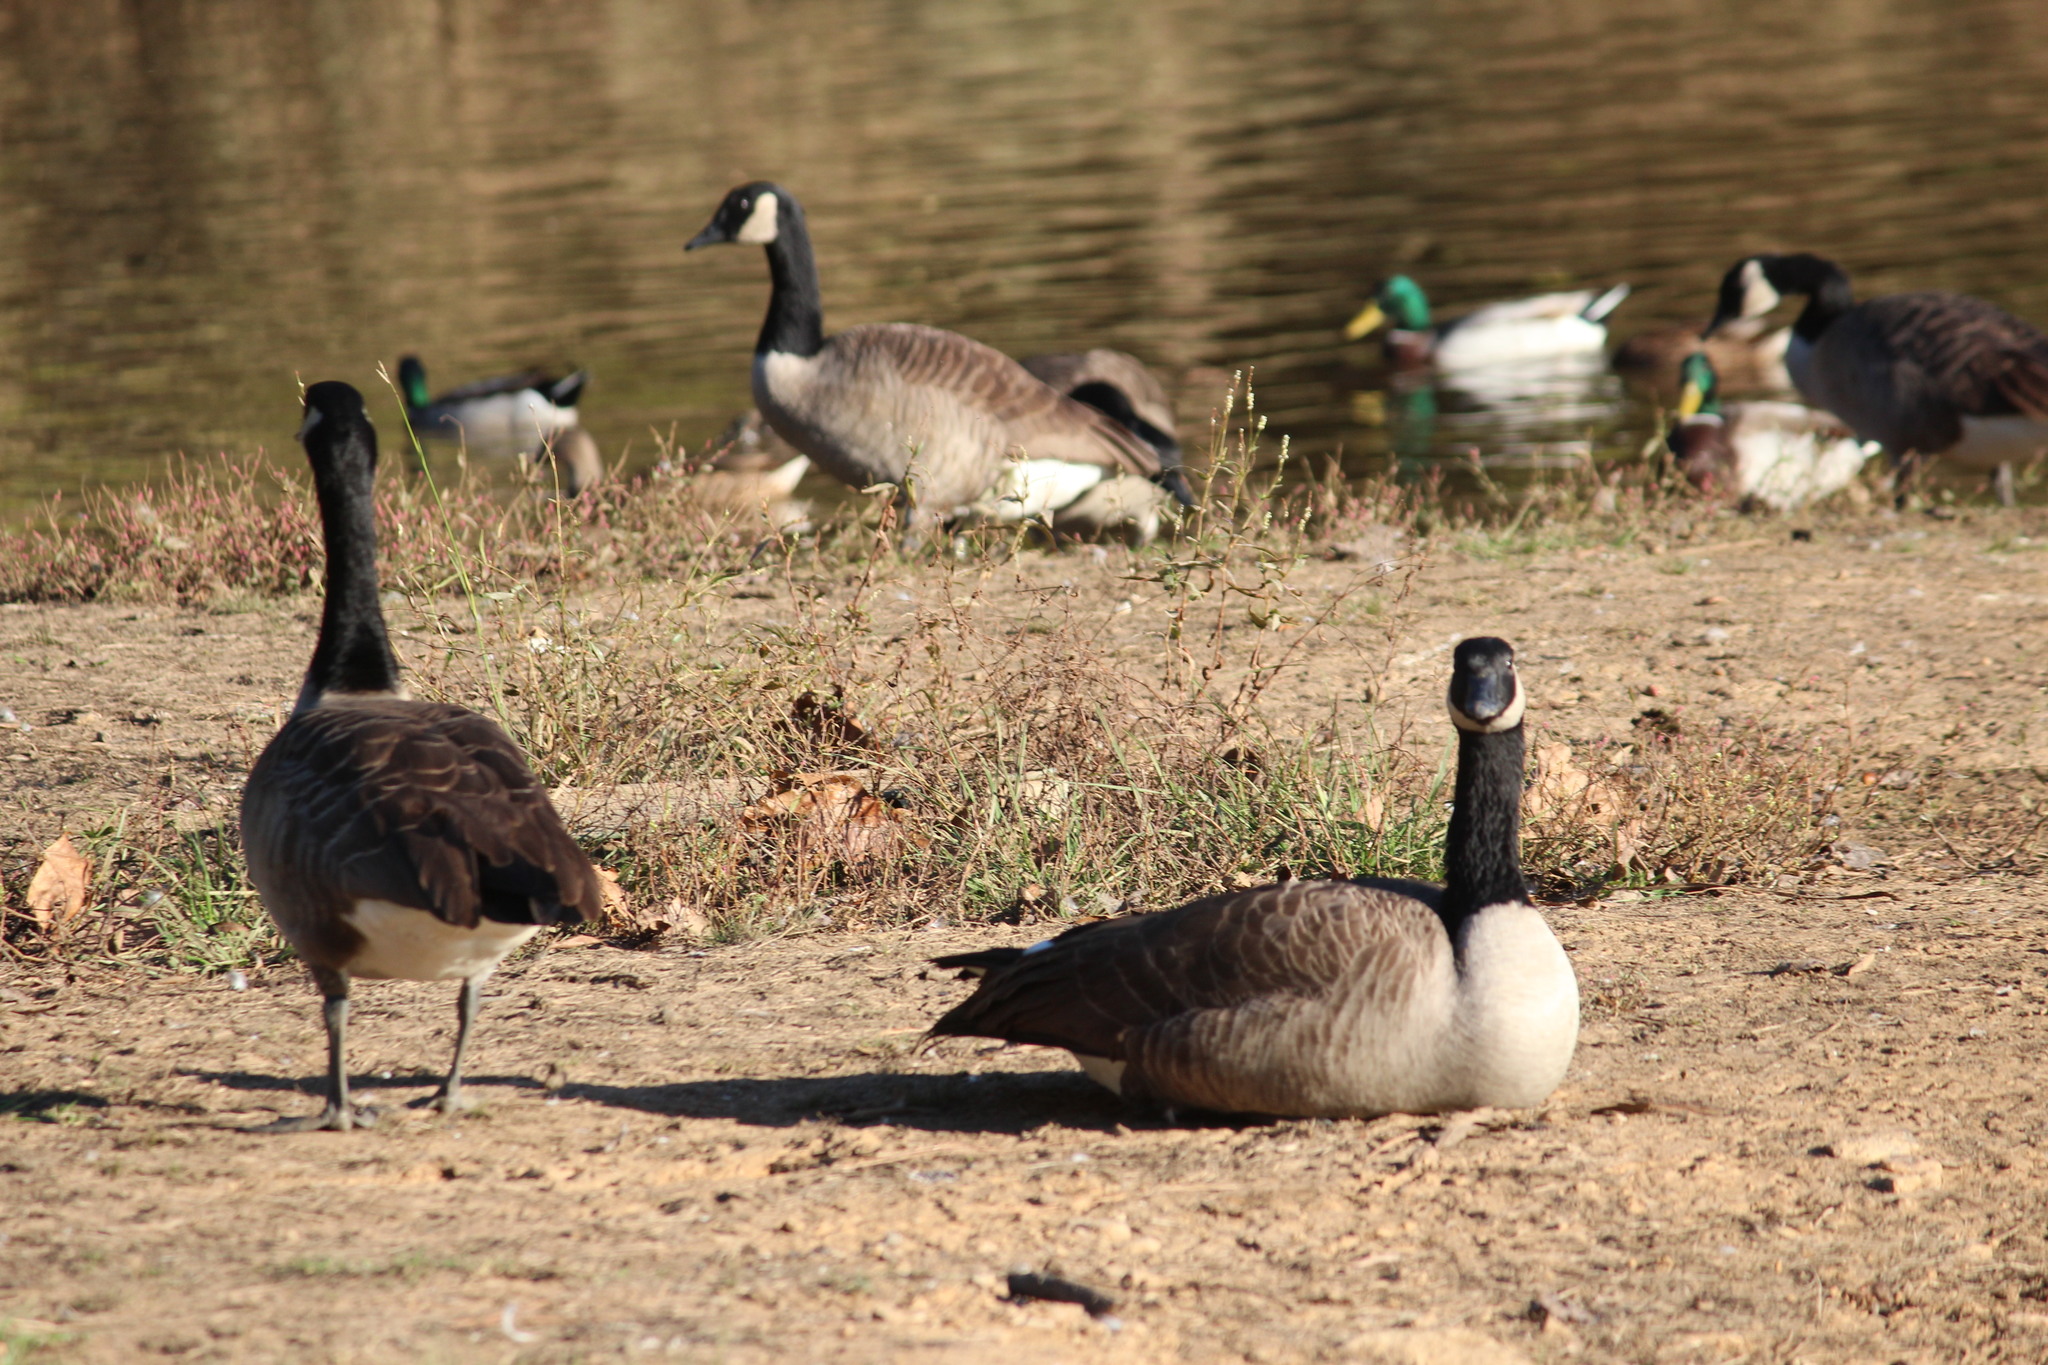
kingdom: Animalia
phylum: Chordata
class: Aves
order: Anseriformes
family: Anatidae
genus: Branta
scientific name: Branta canadensis
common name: Canada goose
